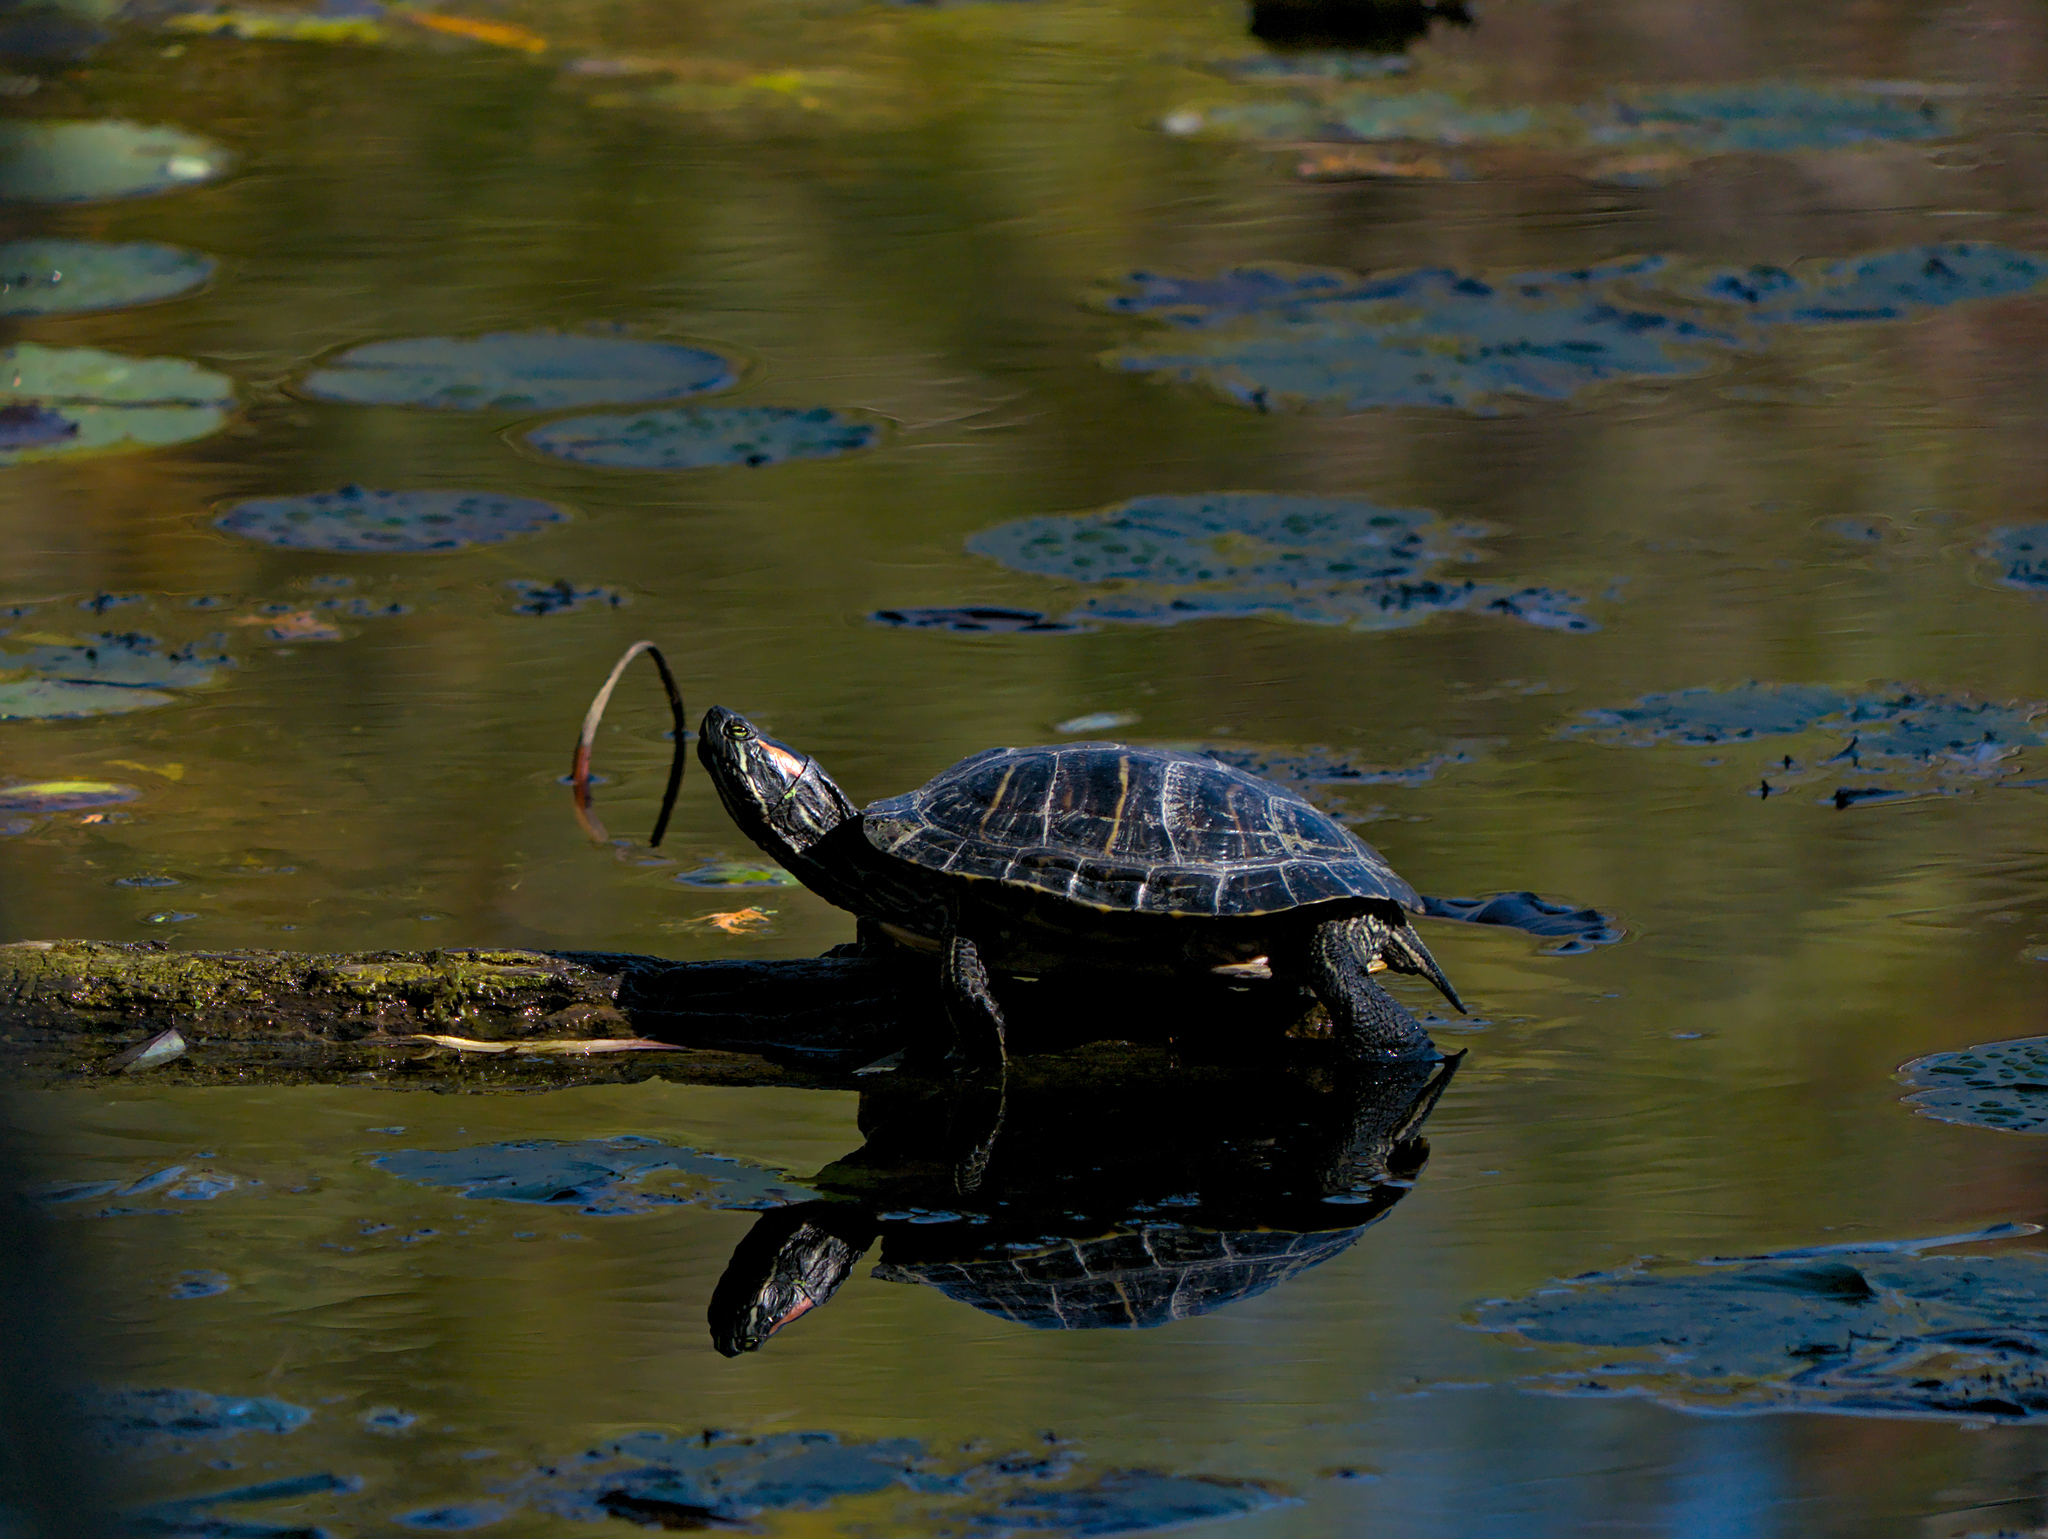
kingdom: Animalia
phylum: Chordata
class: Testudines
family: Emydidae
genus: Trachemys
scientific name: Trachemys scripta
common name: Slider
